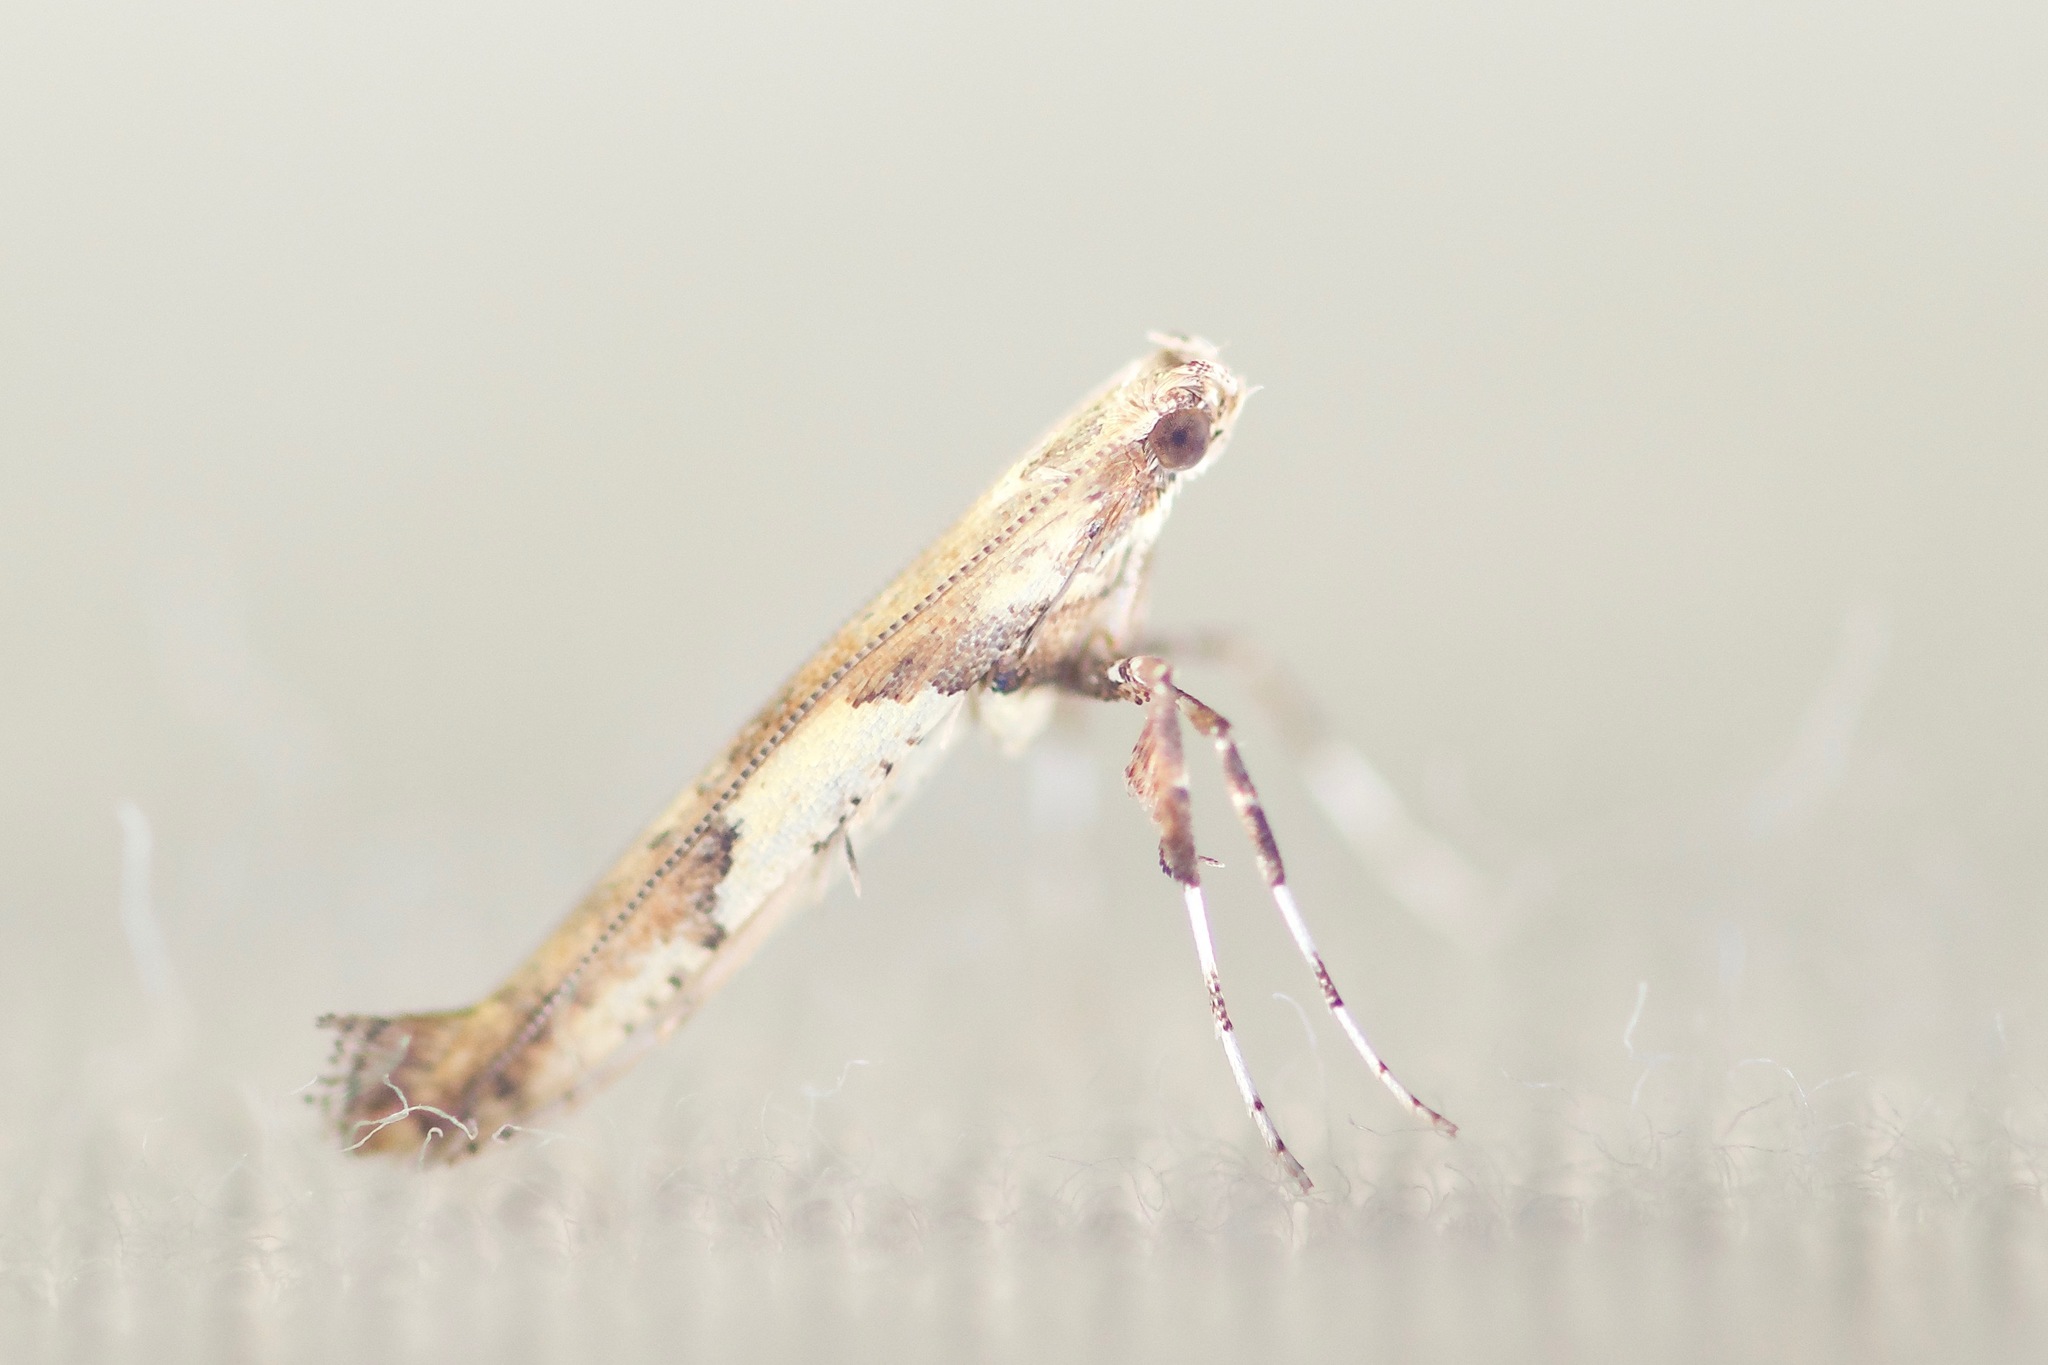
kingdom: Animalia
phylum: Arthropoda
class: Insecta
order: Lepidoptera
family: Gracillariidae
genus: Caloptilia
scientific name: Caloptilia negundella
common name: Leafminer
